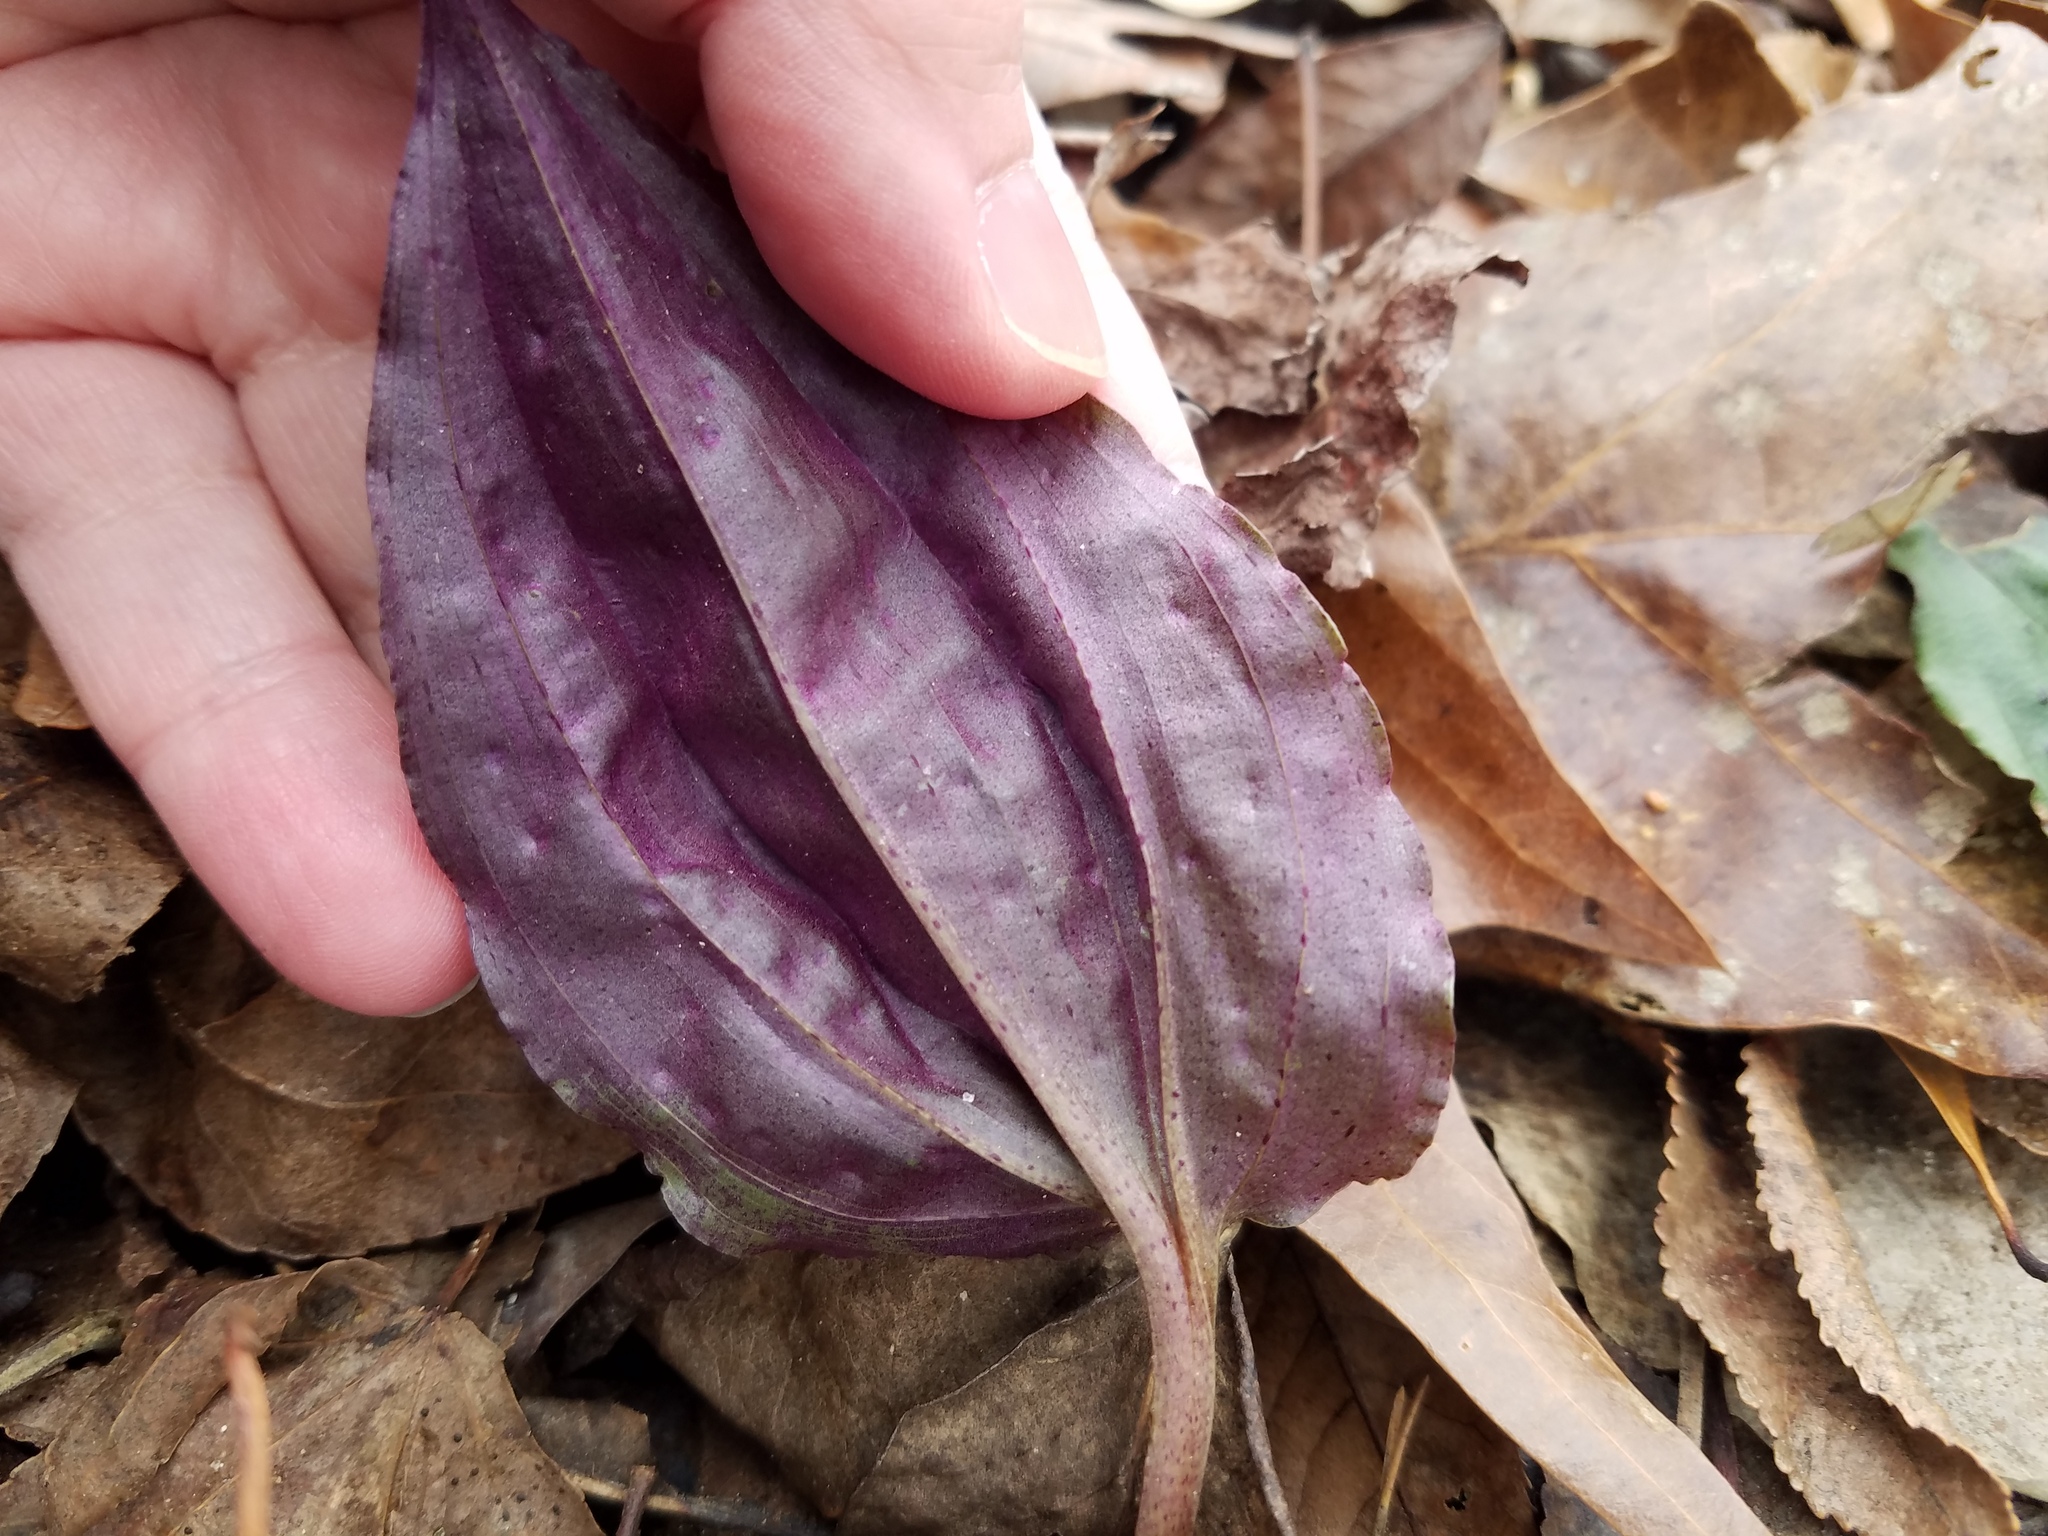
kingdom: Plantae
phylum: Tracheophyta
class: Liliopsida
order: Asparagales
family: Orchidaceae
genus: Tipularia
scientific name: Tipularia discolor
